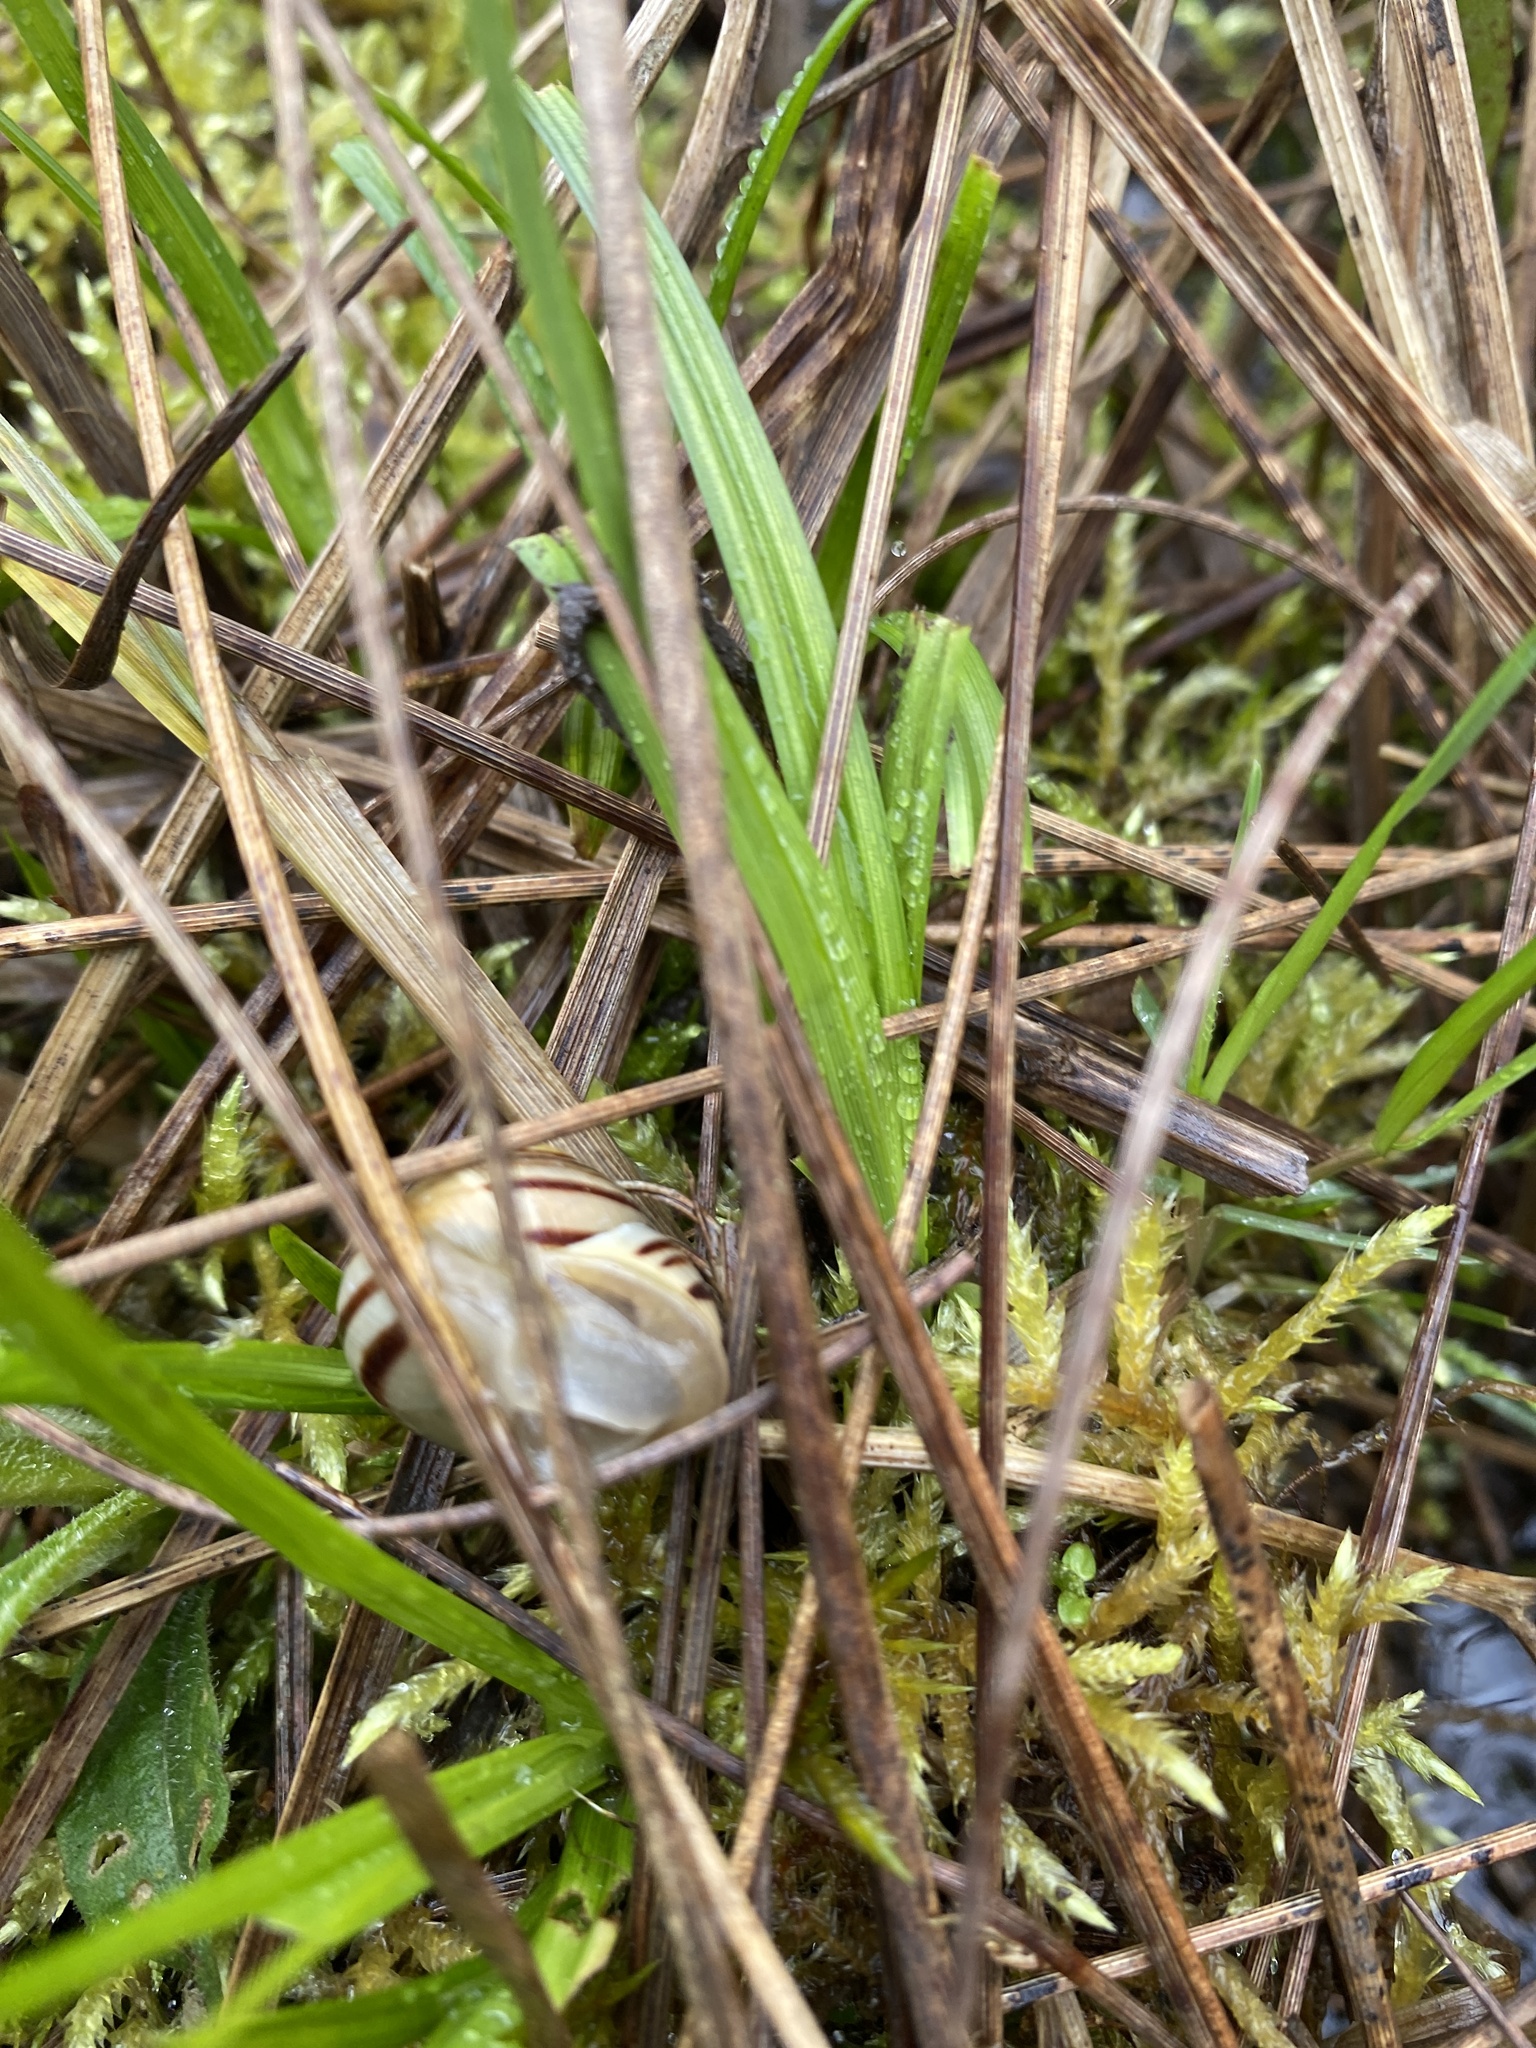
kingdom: Animalia
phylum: Mollusca
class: Gastropoda
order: Stylommatophora
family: Helicidae
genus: Cepaea
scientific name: Cepaea hortensis
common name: White-lip gardensnail
